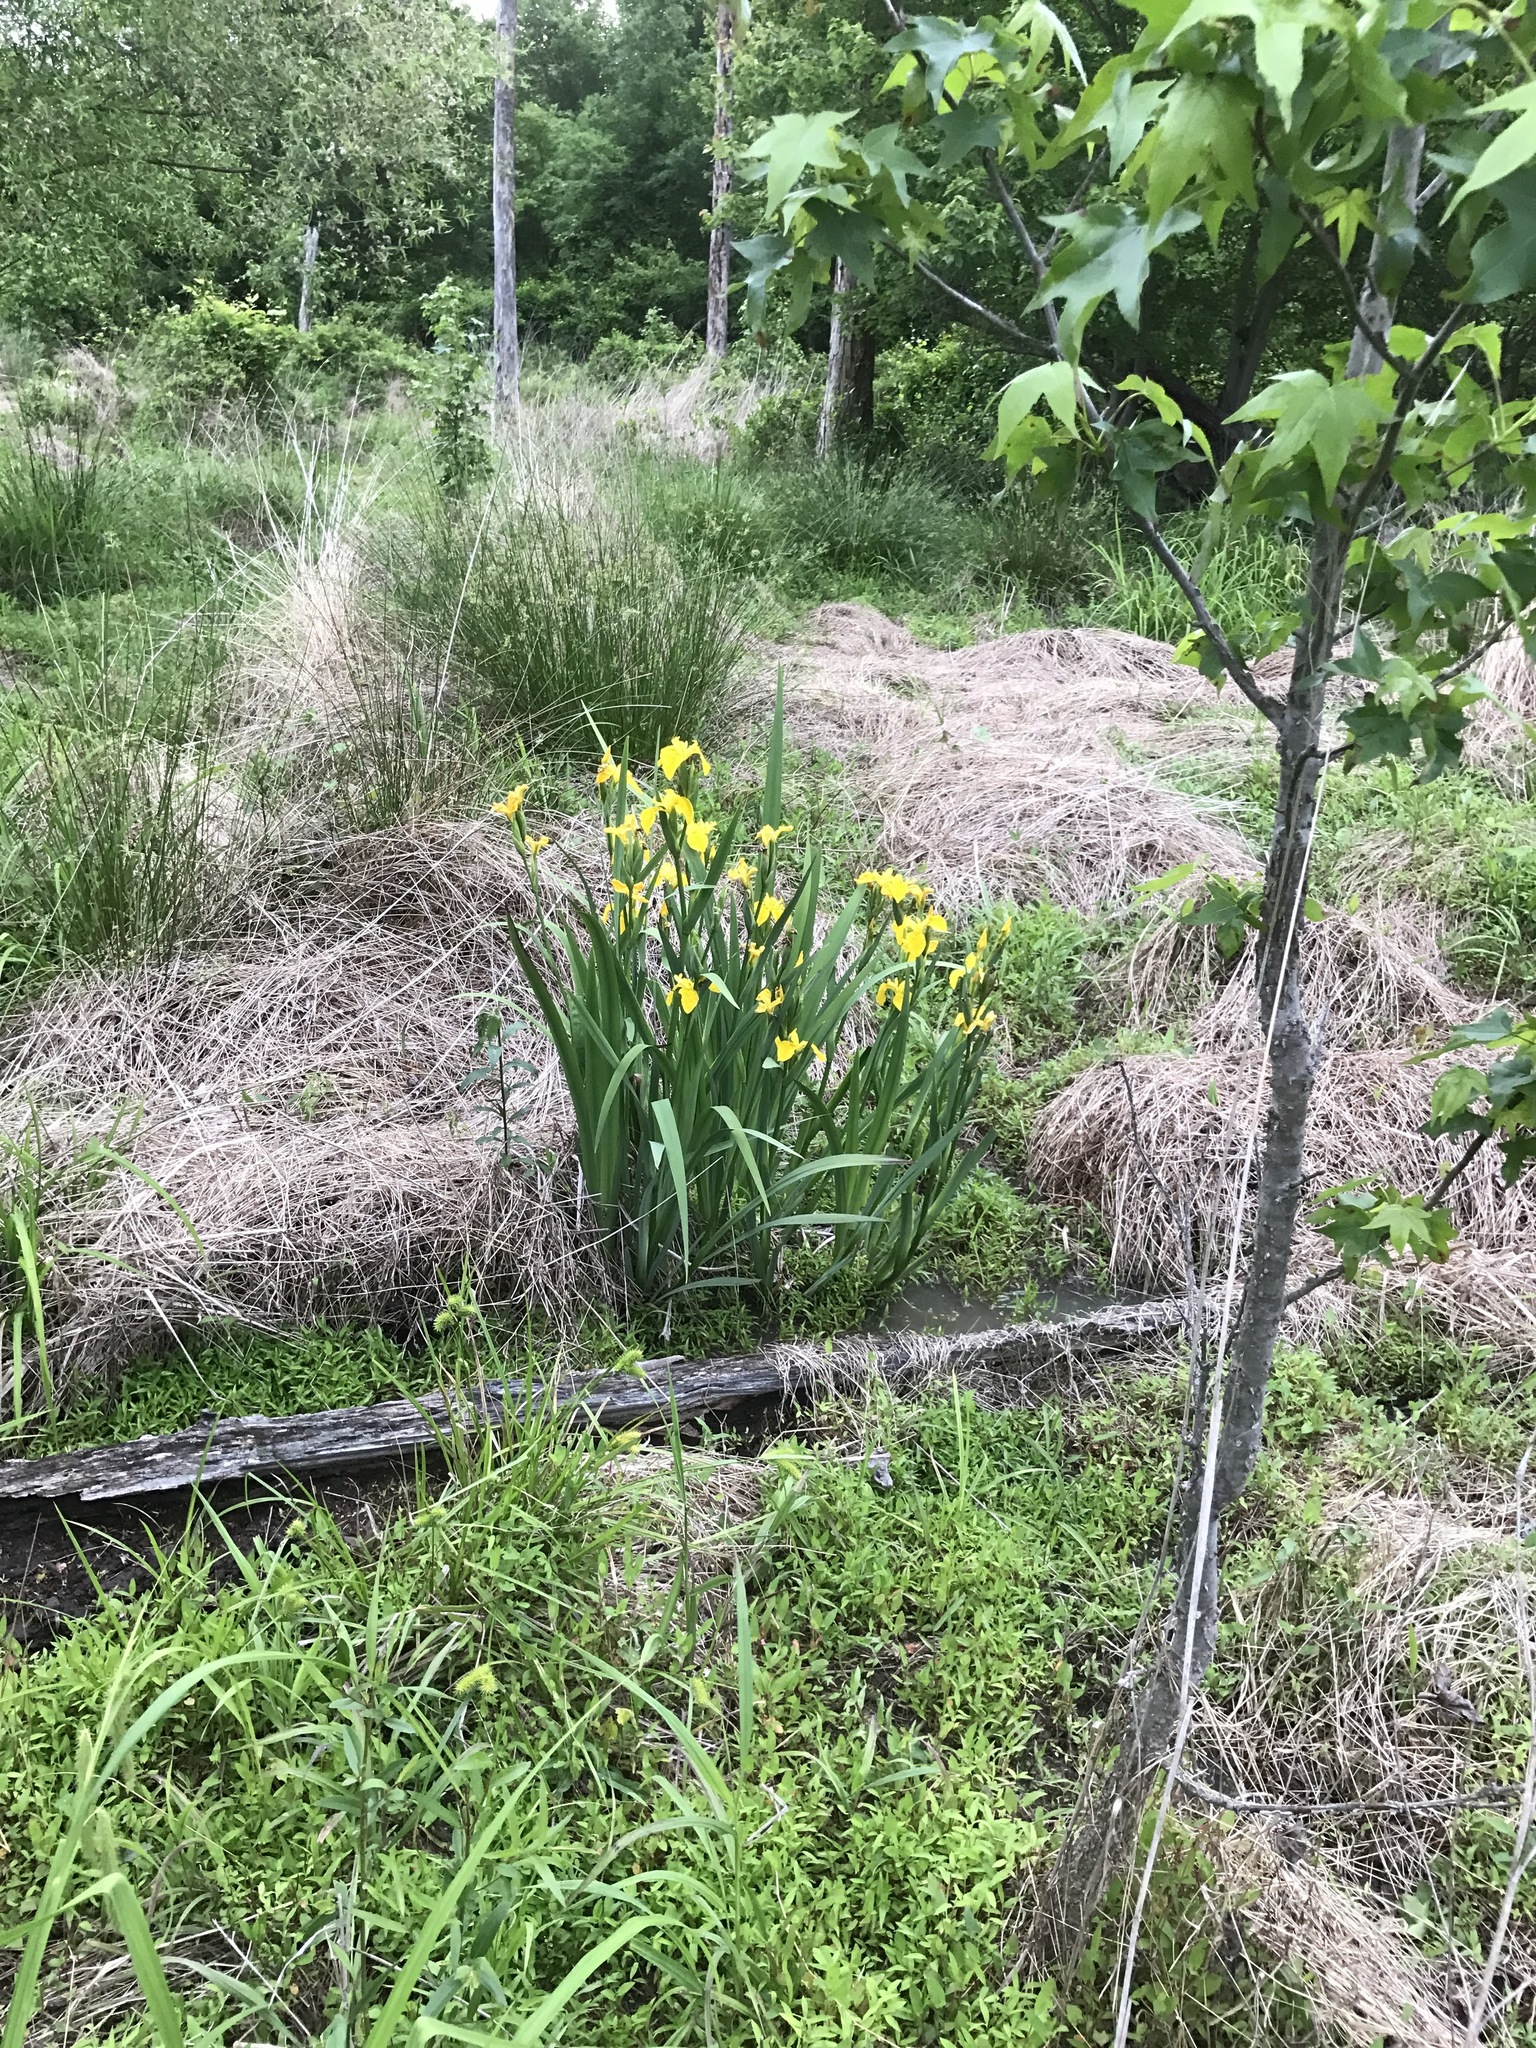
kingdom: Plantae
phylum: Tracheophyta
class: Liliopsida
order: Asparagales
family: Iridaceae
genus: Iris
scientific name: Iris pseudacorus
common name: Yellow flag
